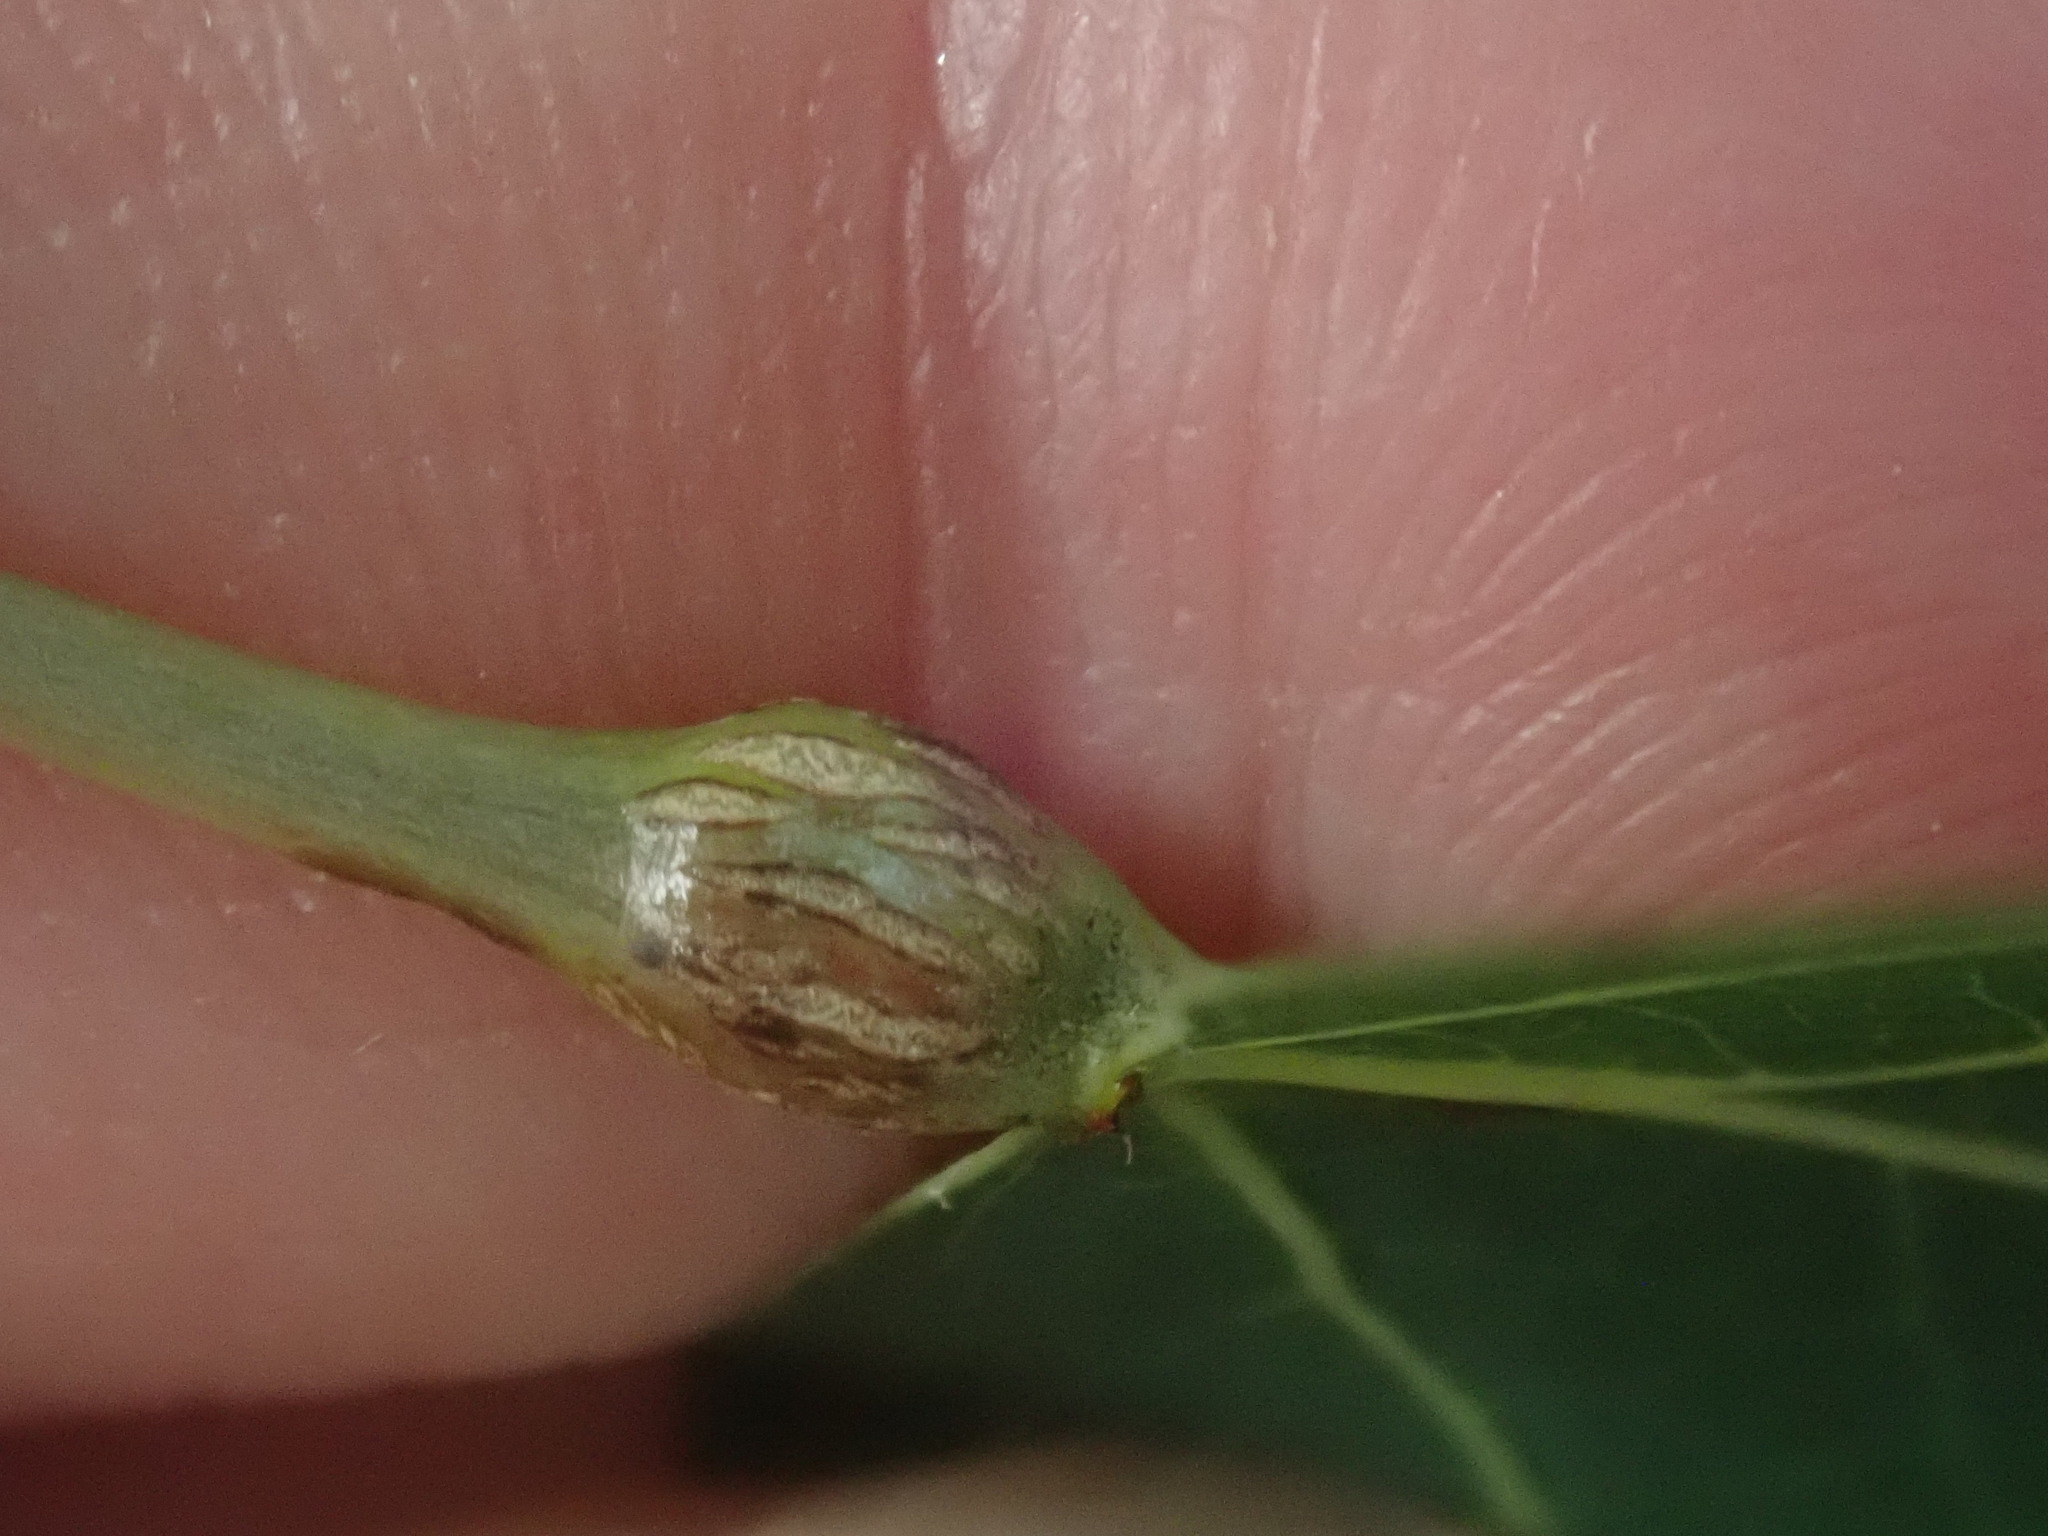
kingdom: Animalia
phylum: Arthropoda
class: Insecta
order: Lepidoptera
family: Nepticulidae
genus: Ectoedemia
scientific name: Ectoedemia populella
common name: Aspen petiole gall moth
